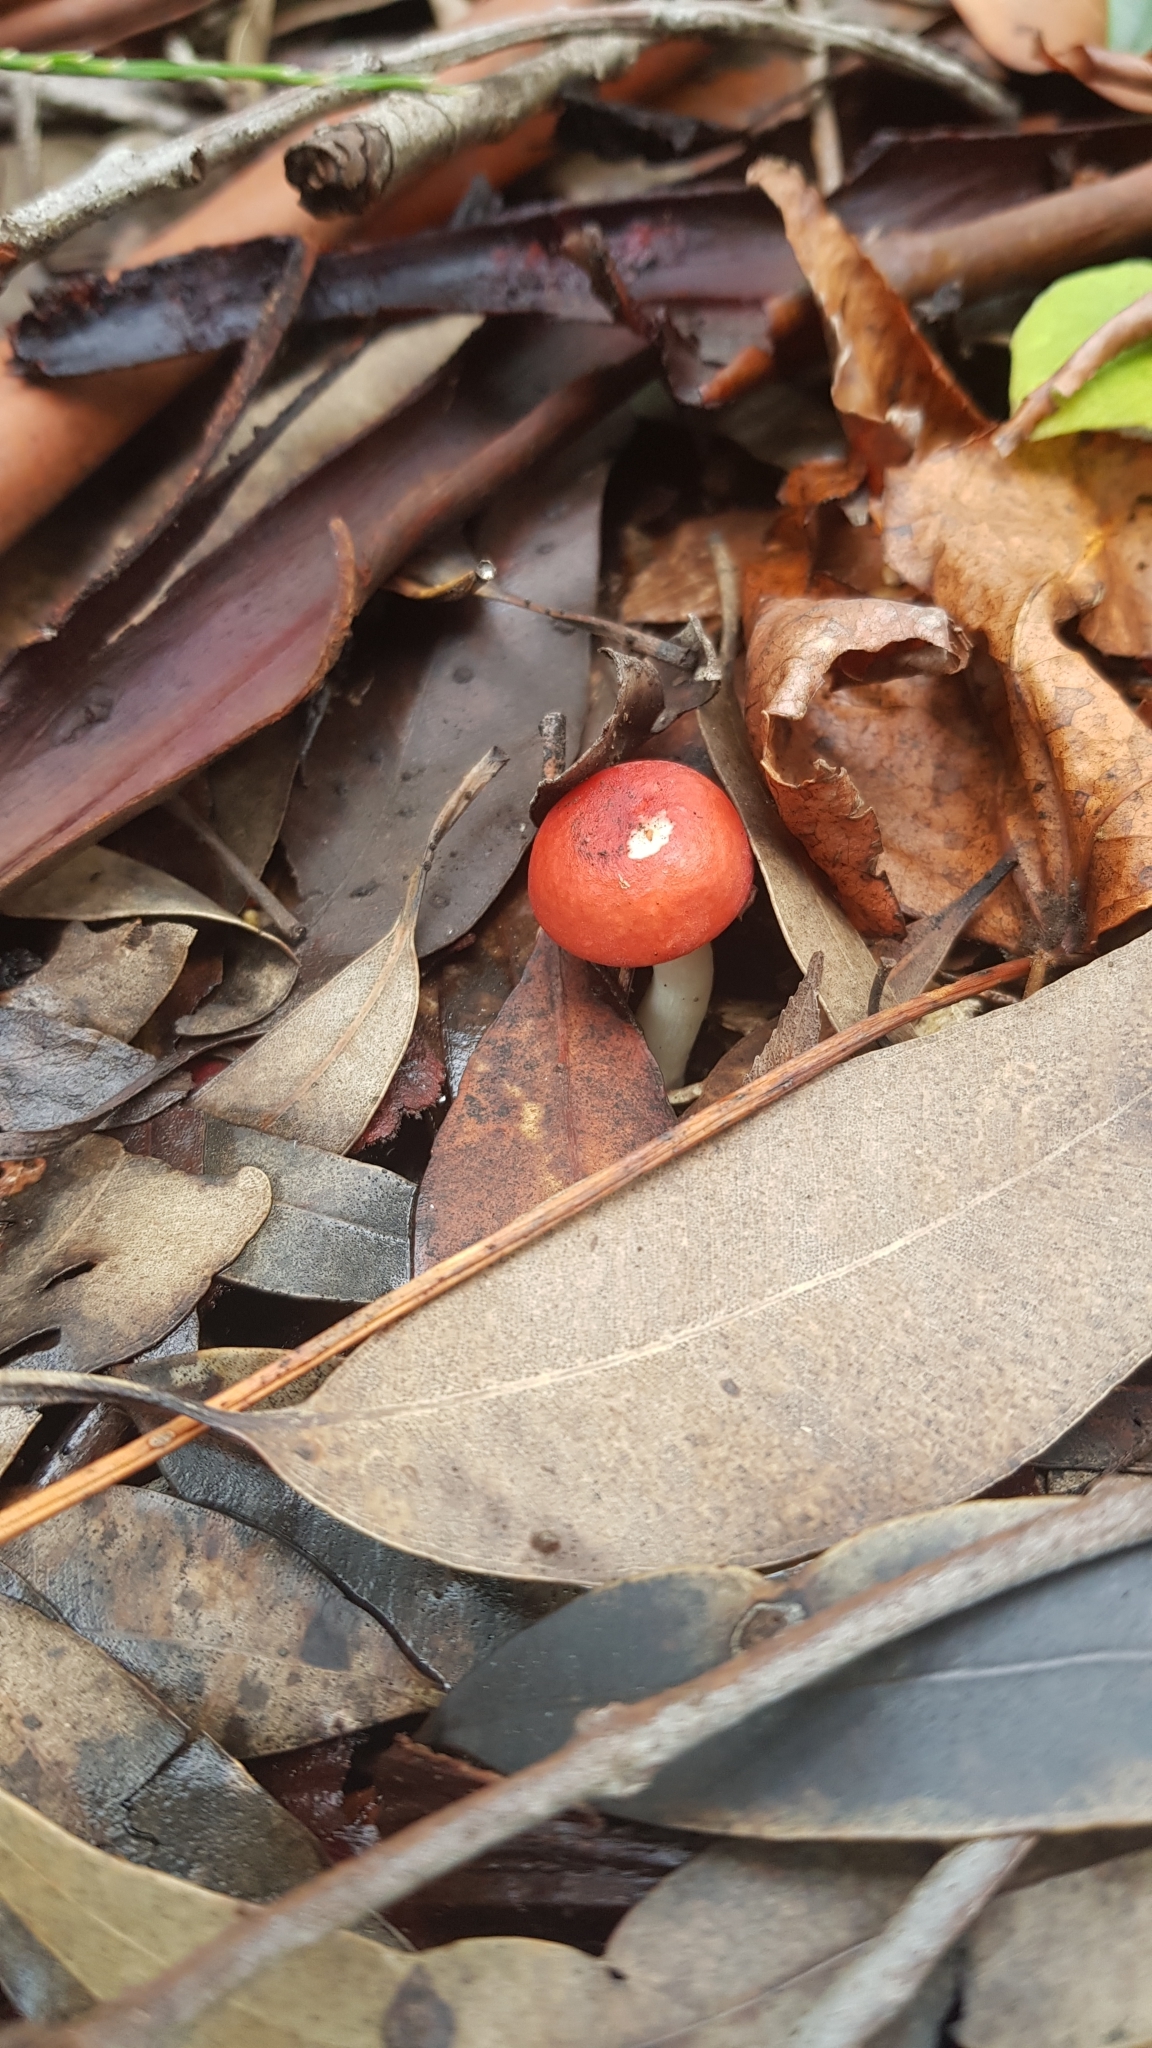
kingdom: Fungi
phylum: Basidiomycota
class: Agaricomycetes
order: Russulales
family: Russulaceae
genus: Russula
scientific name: Russula persanguinea
